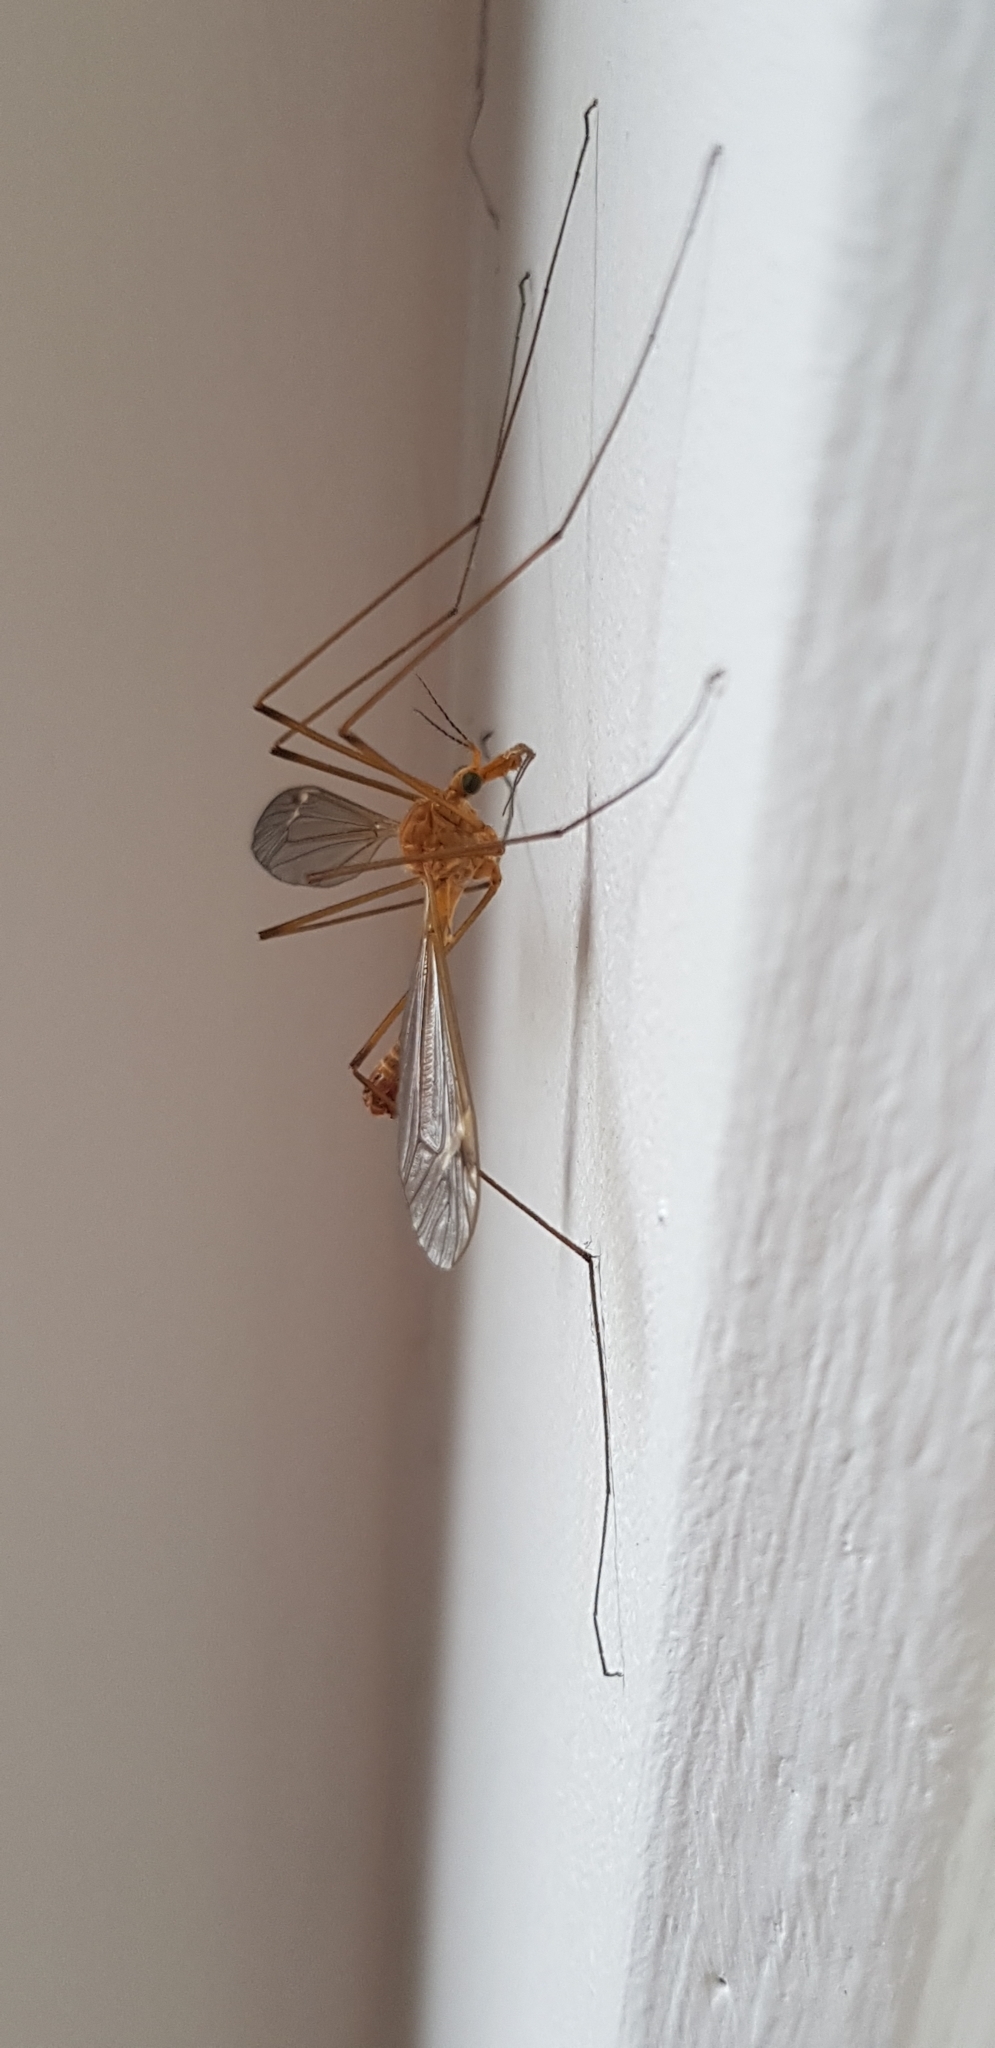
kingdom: Animalia
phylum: Arthropoda
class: Insecta
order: Diptera
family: Tipulidae
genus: Tipula
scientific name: Tipula lunata
